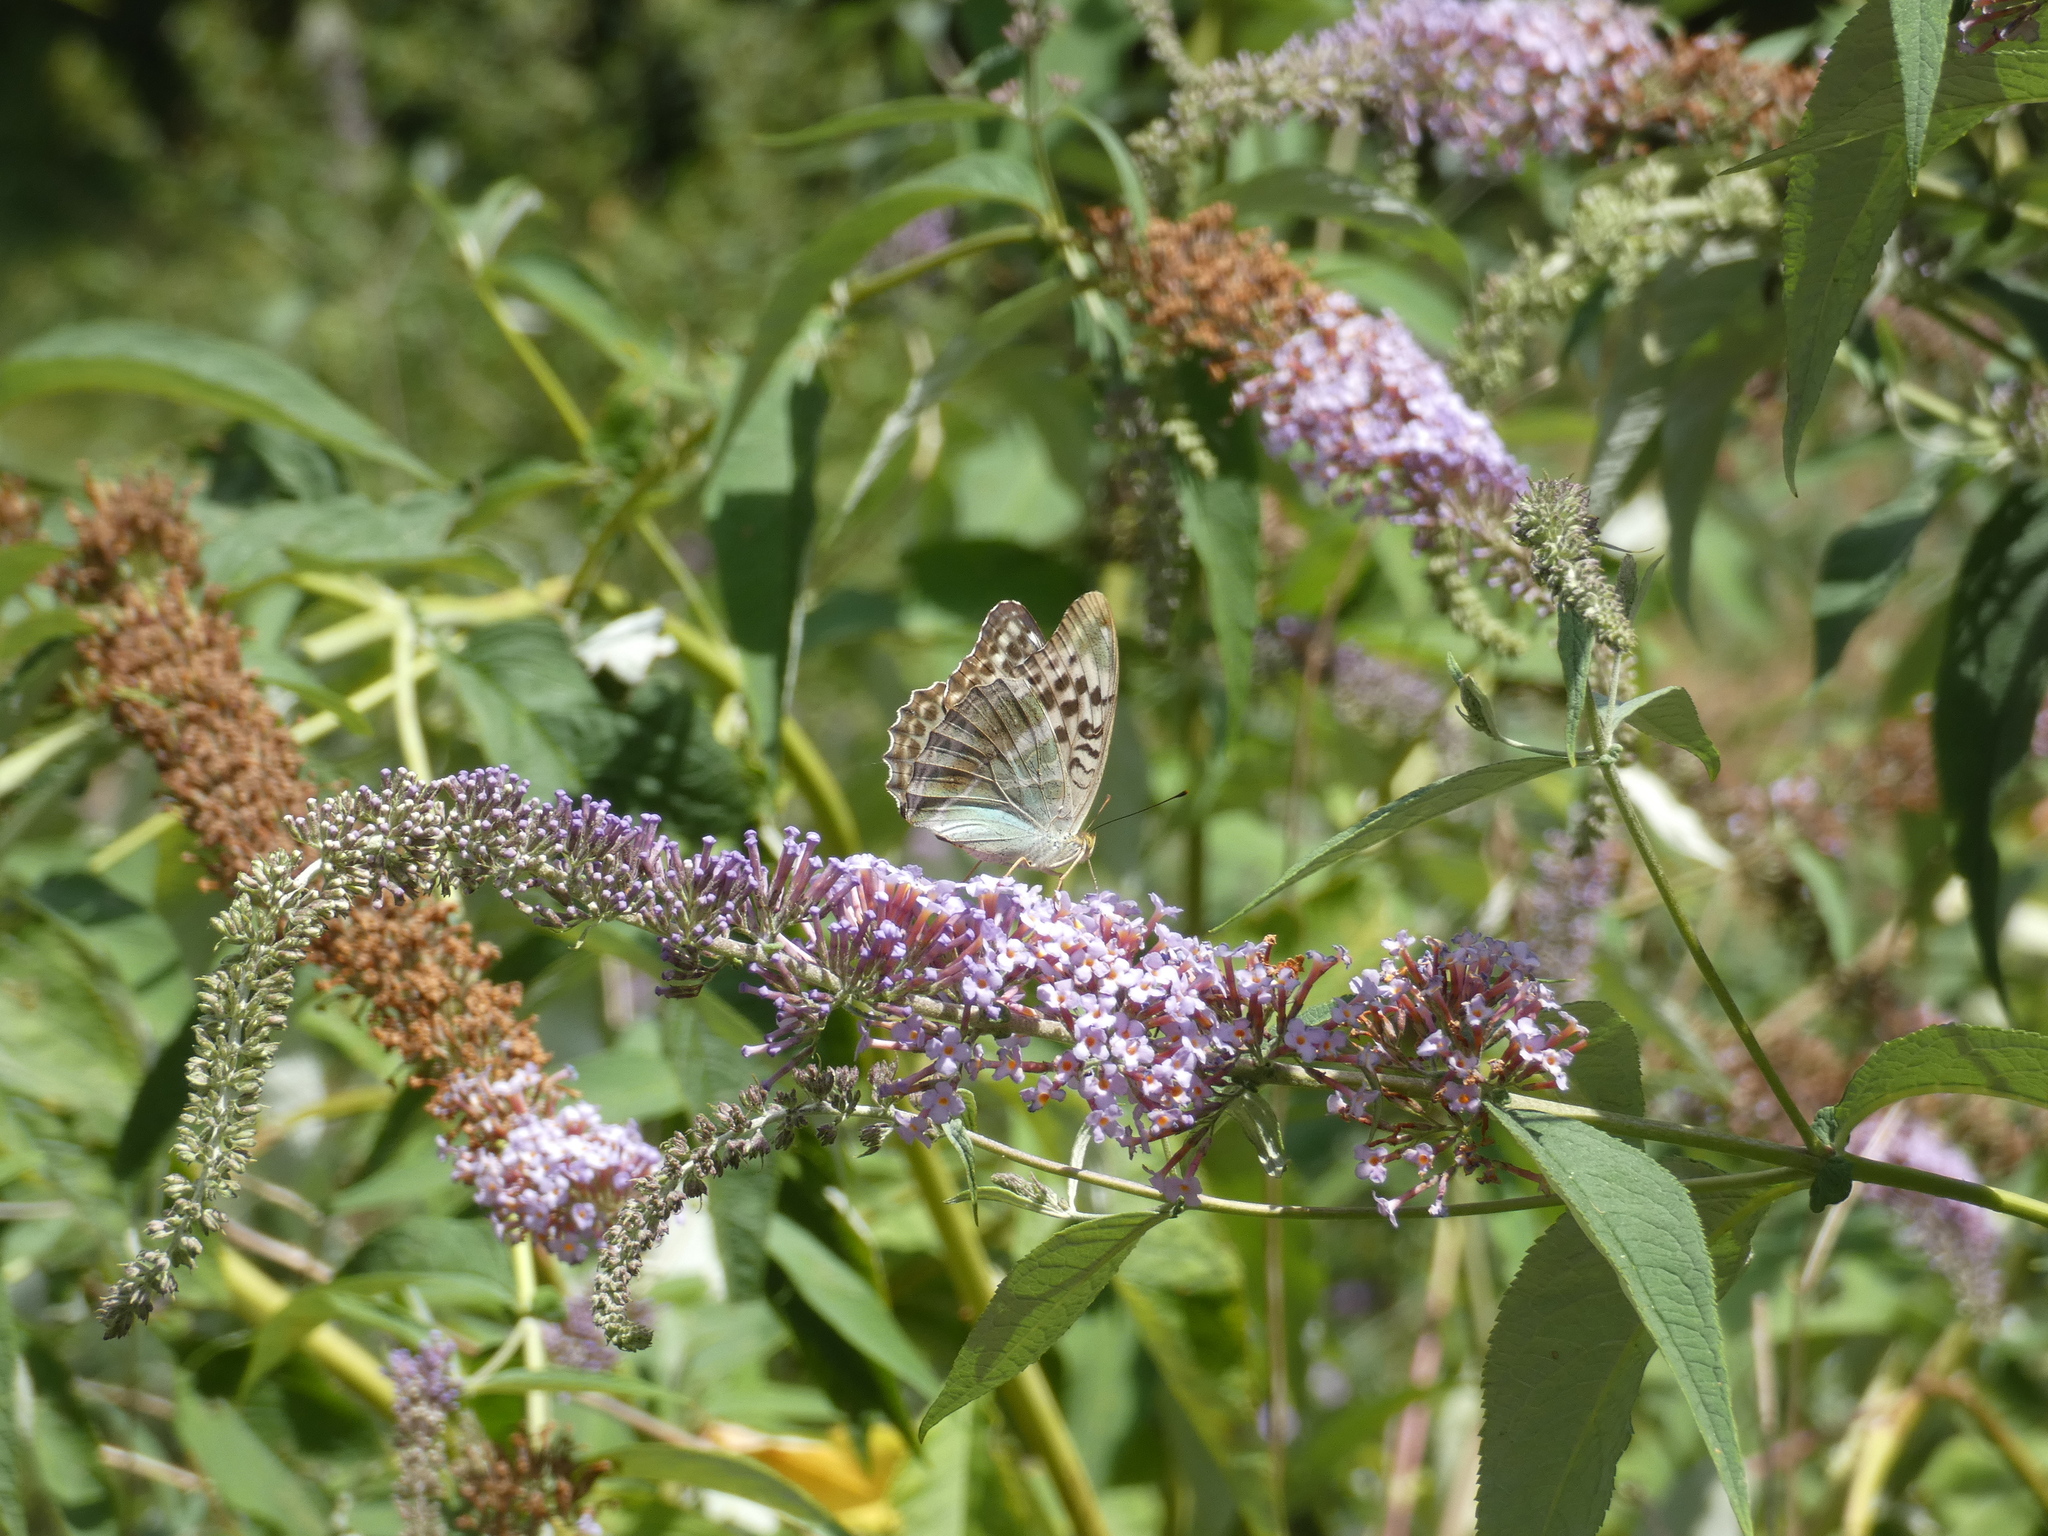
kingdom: Animalia
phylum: Arthropoda
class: Insecta
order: Lepidoptera
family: Nymphalidae
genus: Argynnis
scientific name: Argynnis paphia
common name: Silver-washed fritillary
